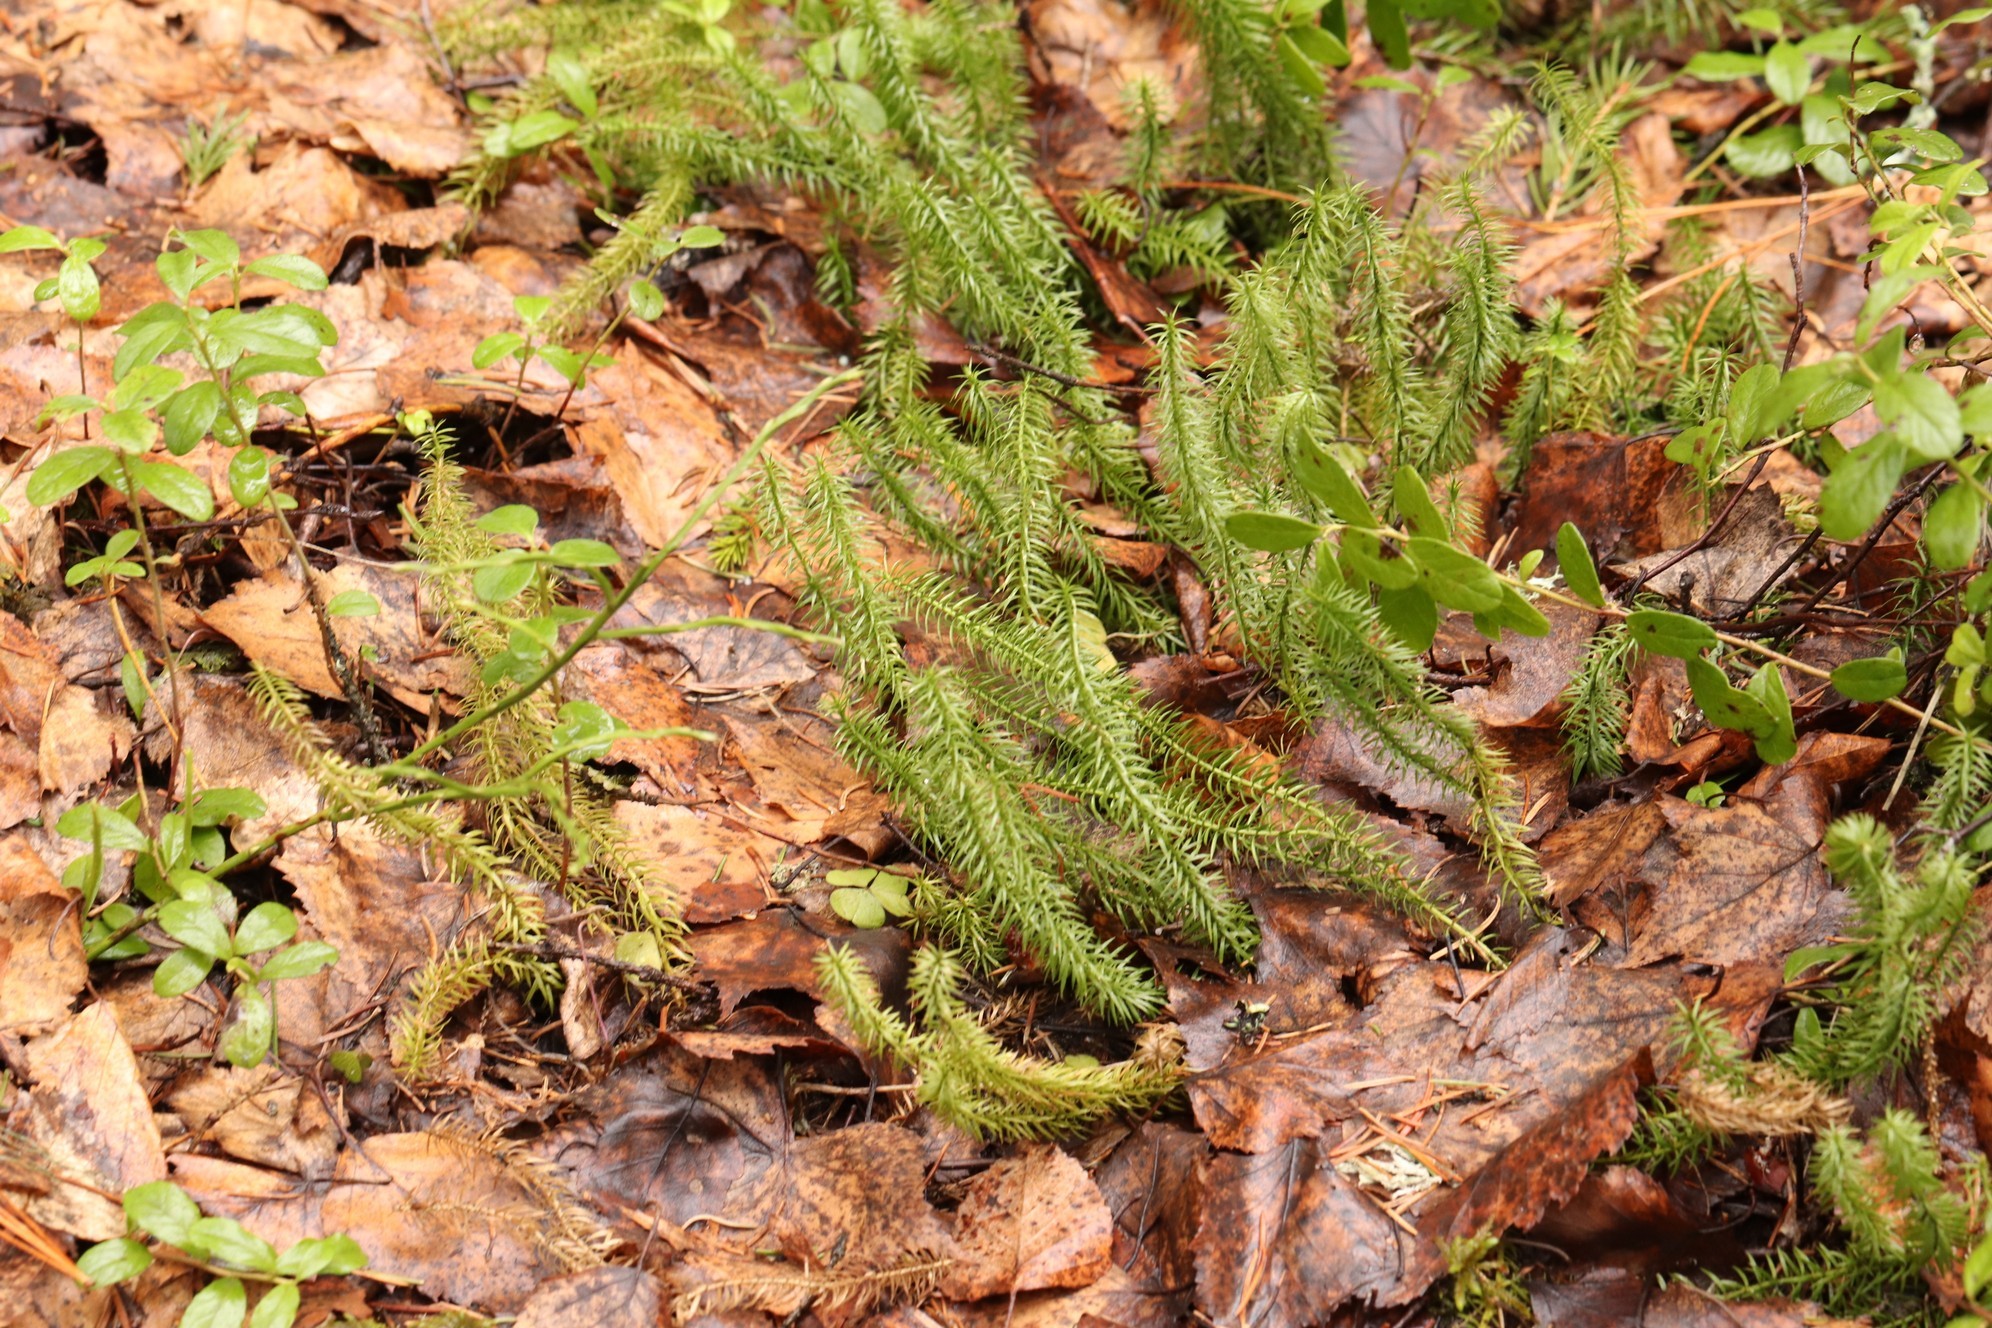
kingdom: Plantae
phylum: Tracheophyta
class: Lycopodiopsida
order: Lycopodiales
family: Lycopodiaceae
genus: Spinulum
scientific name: Spinulum annotinum
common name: Interrupted club-moss
